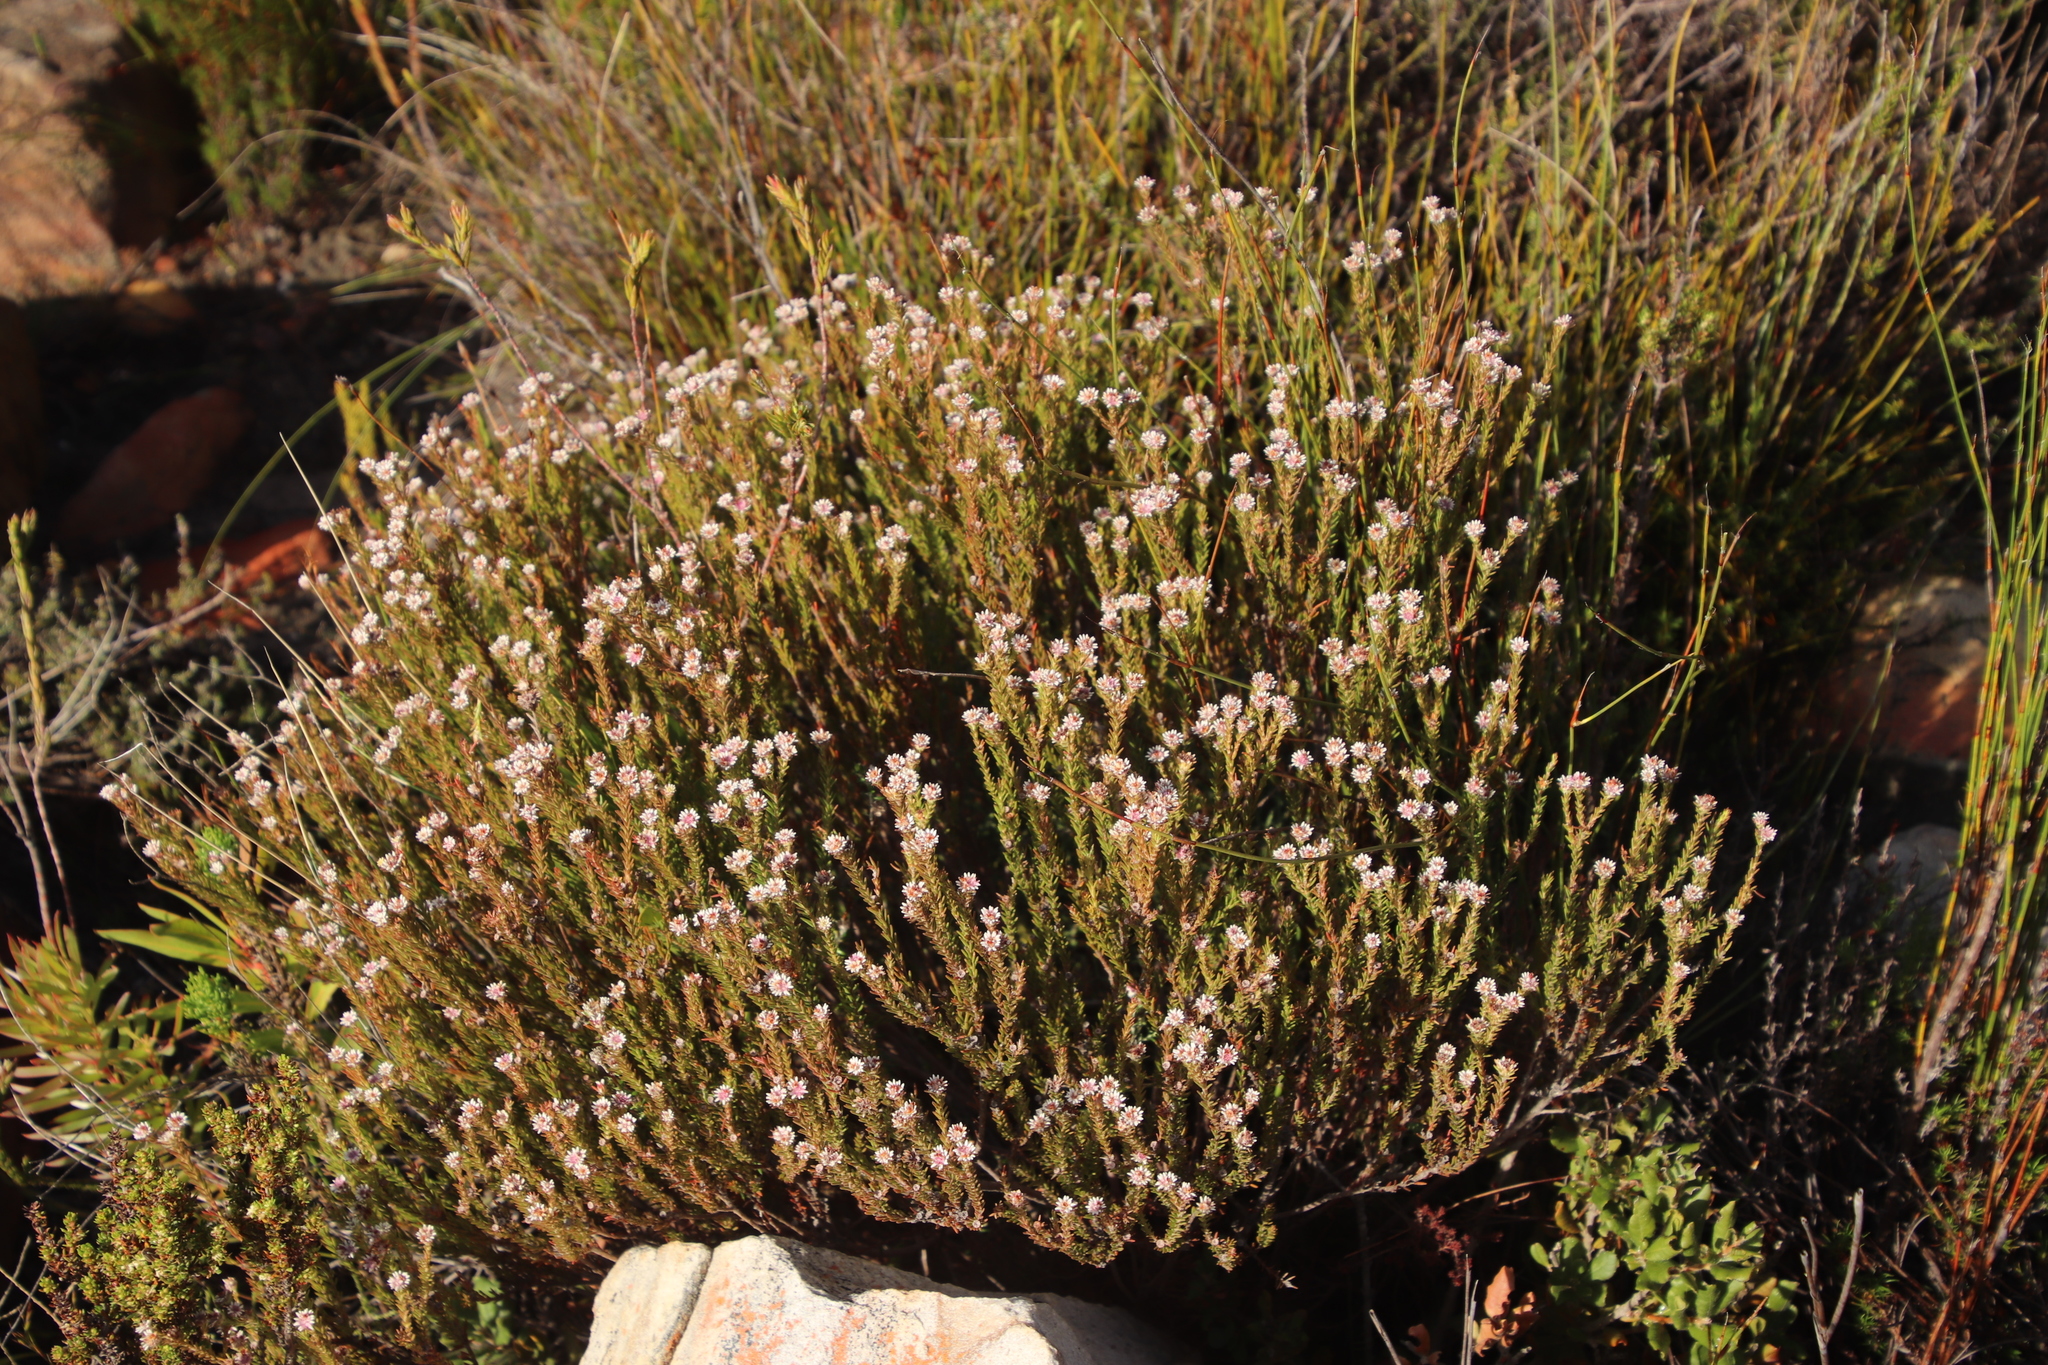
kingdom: Plantae
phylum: Tracheophyta
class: Magnoliopsida
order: Bruniales
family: Bruniaceae
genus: Staavia
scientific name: Staavia radiata
